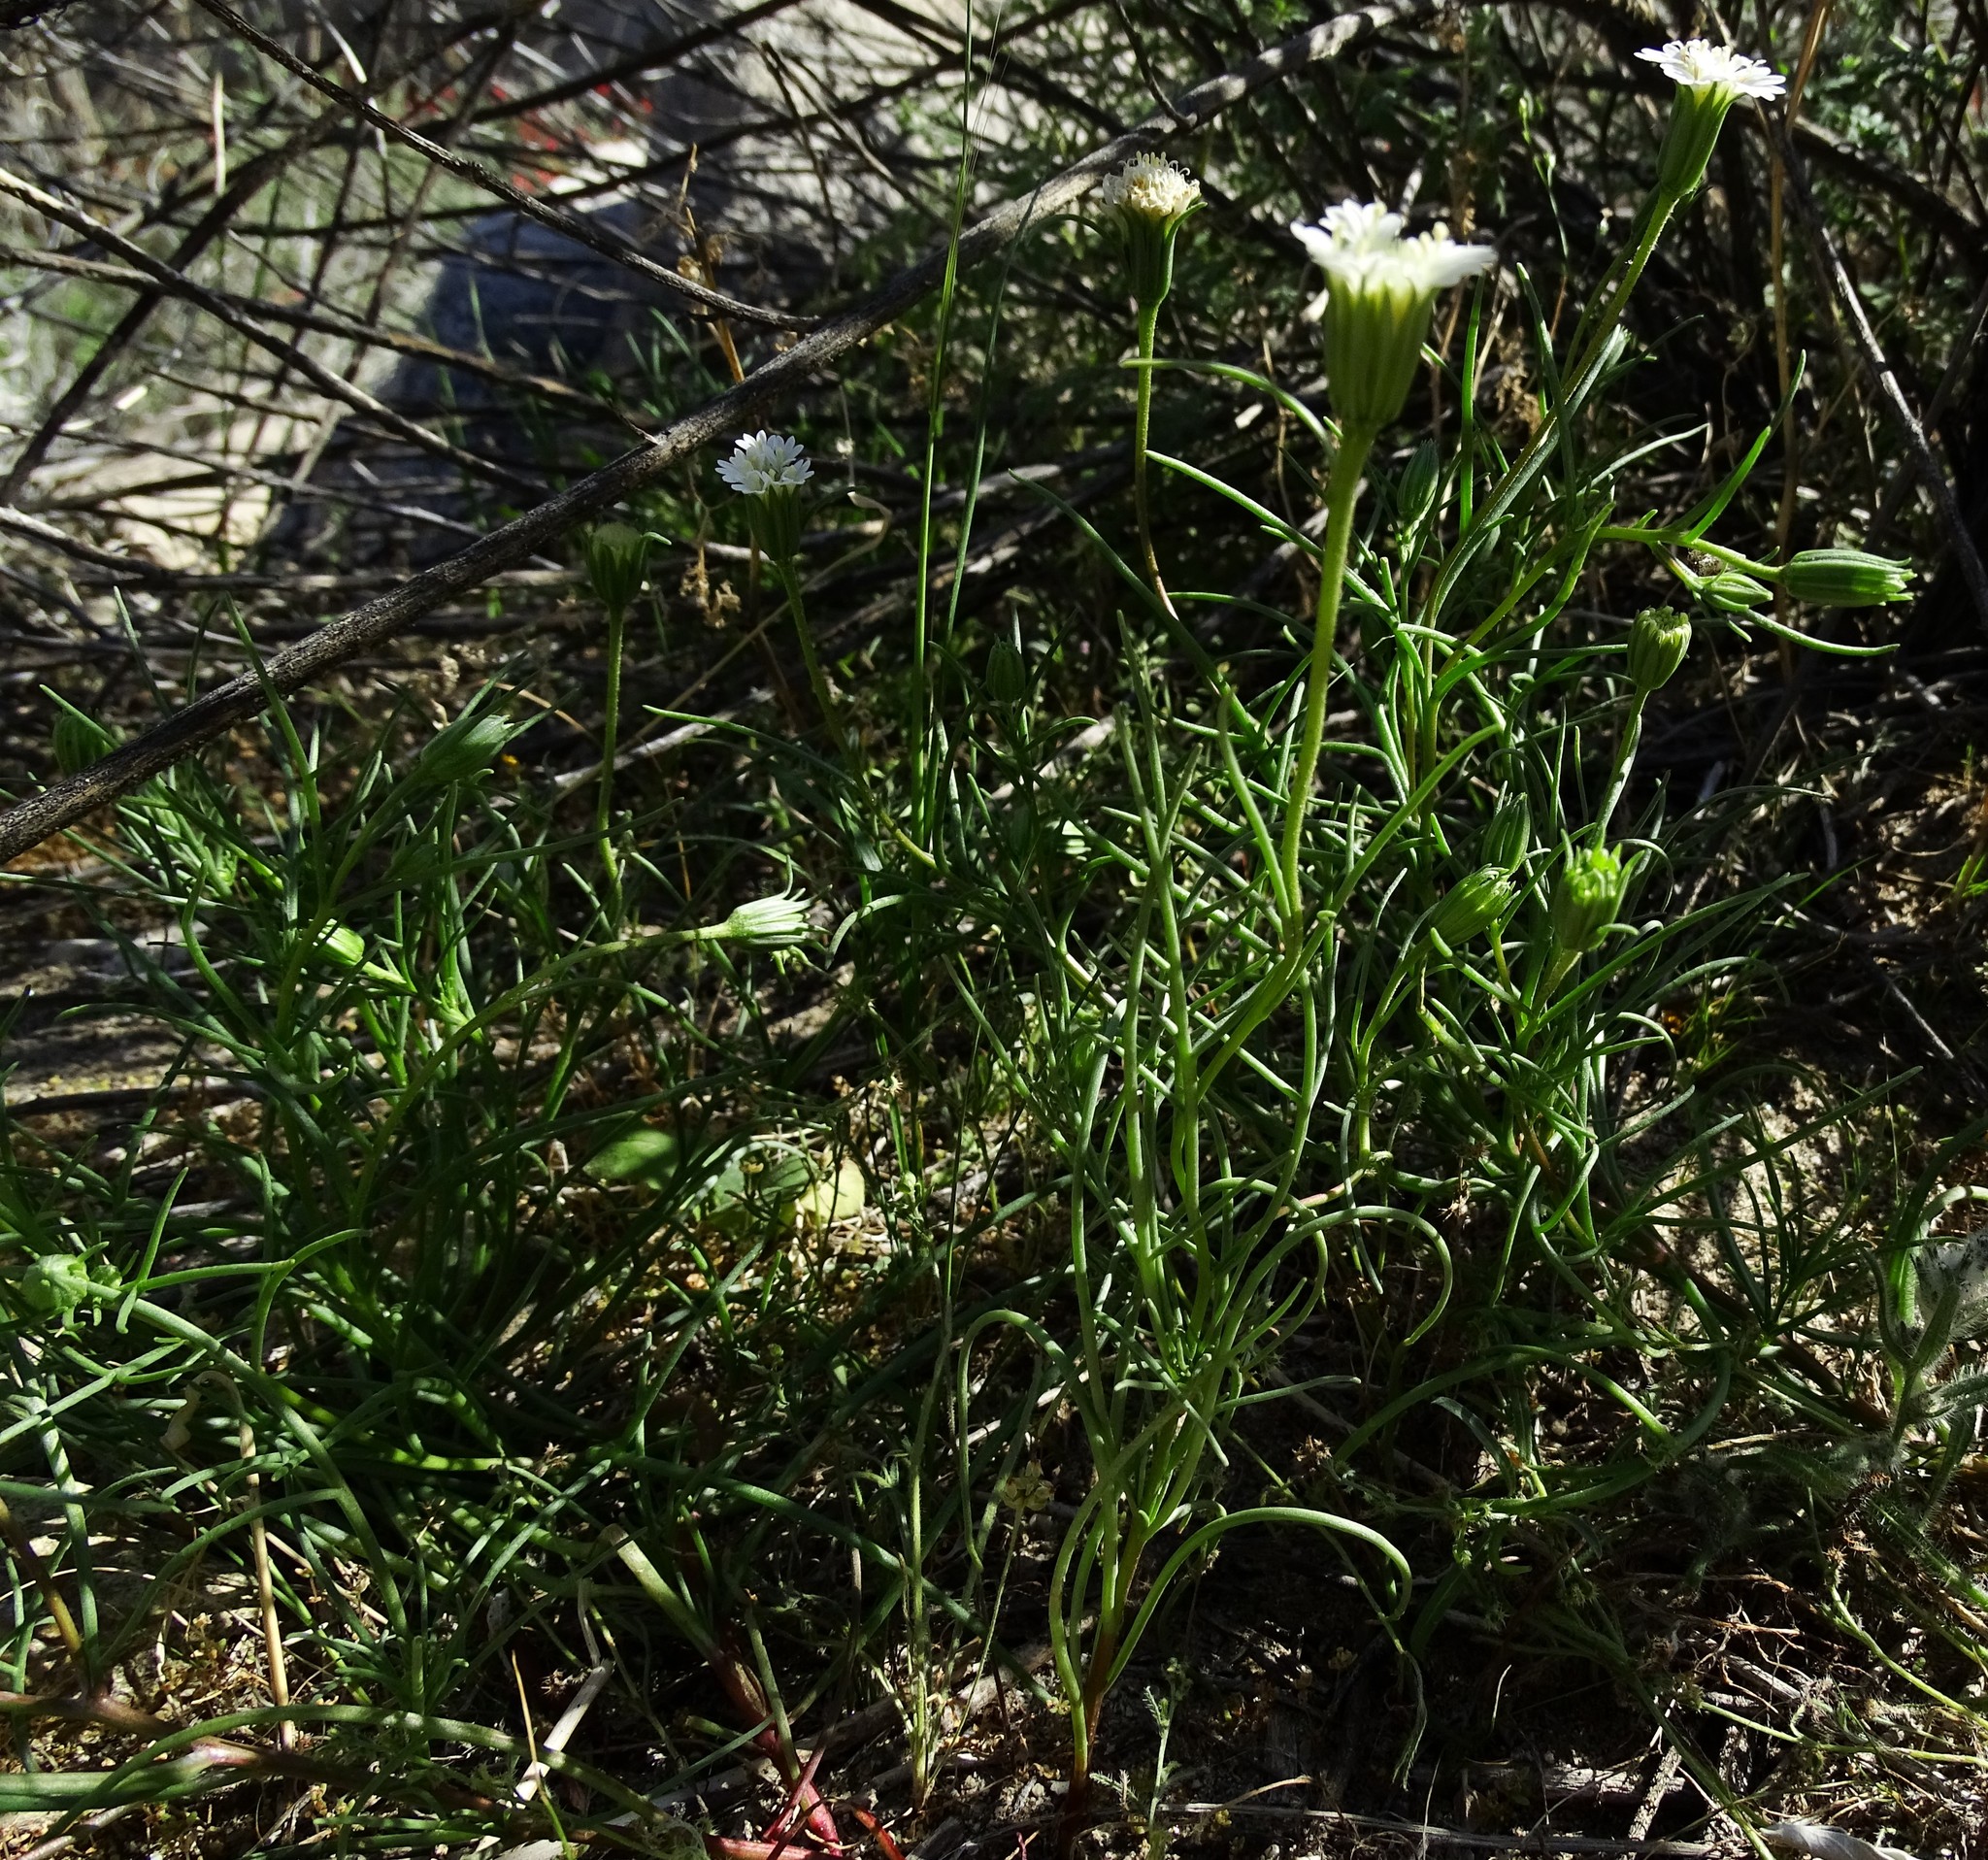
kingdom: Plantae
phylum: Tracheophyta
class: Magnoliopsida
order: Asterales
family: Asteraceae
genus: Chaenactis
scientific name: Chaenactis fremontii
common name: Fremont pincushion
